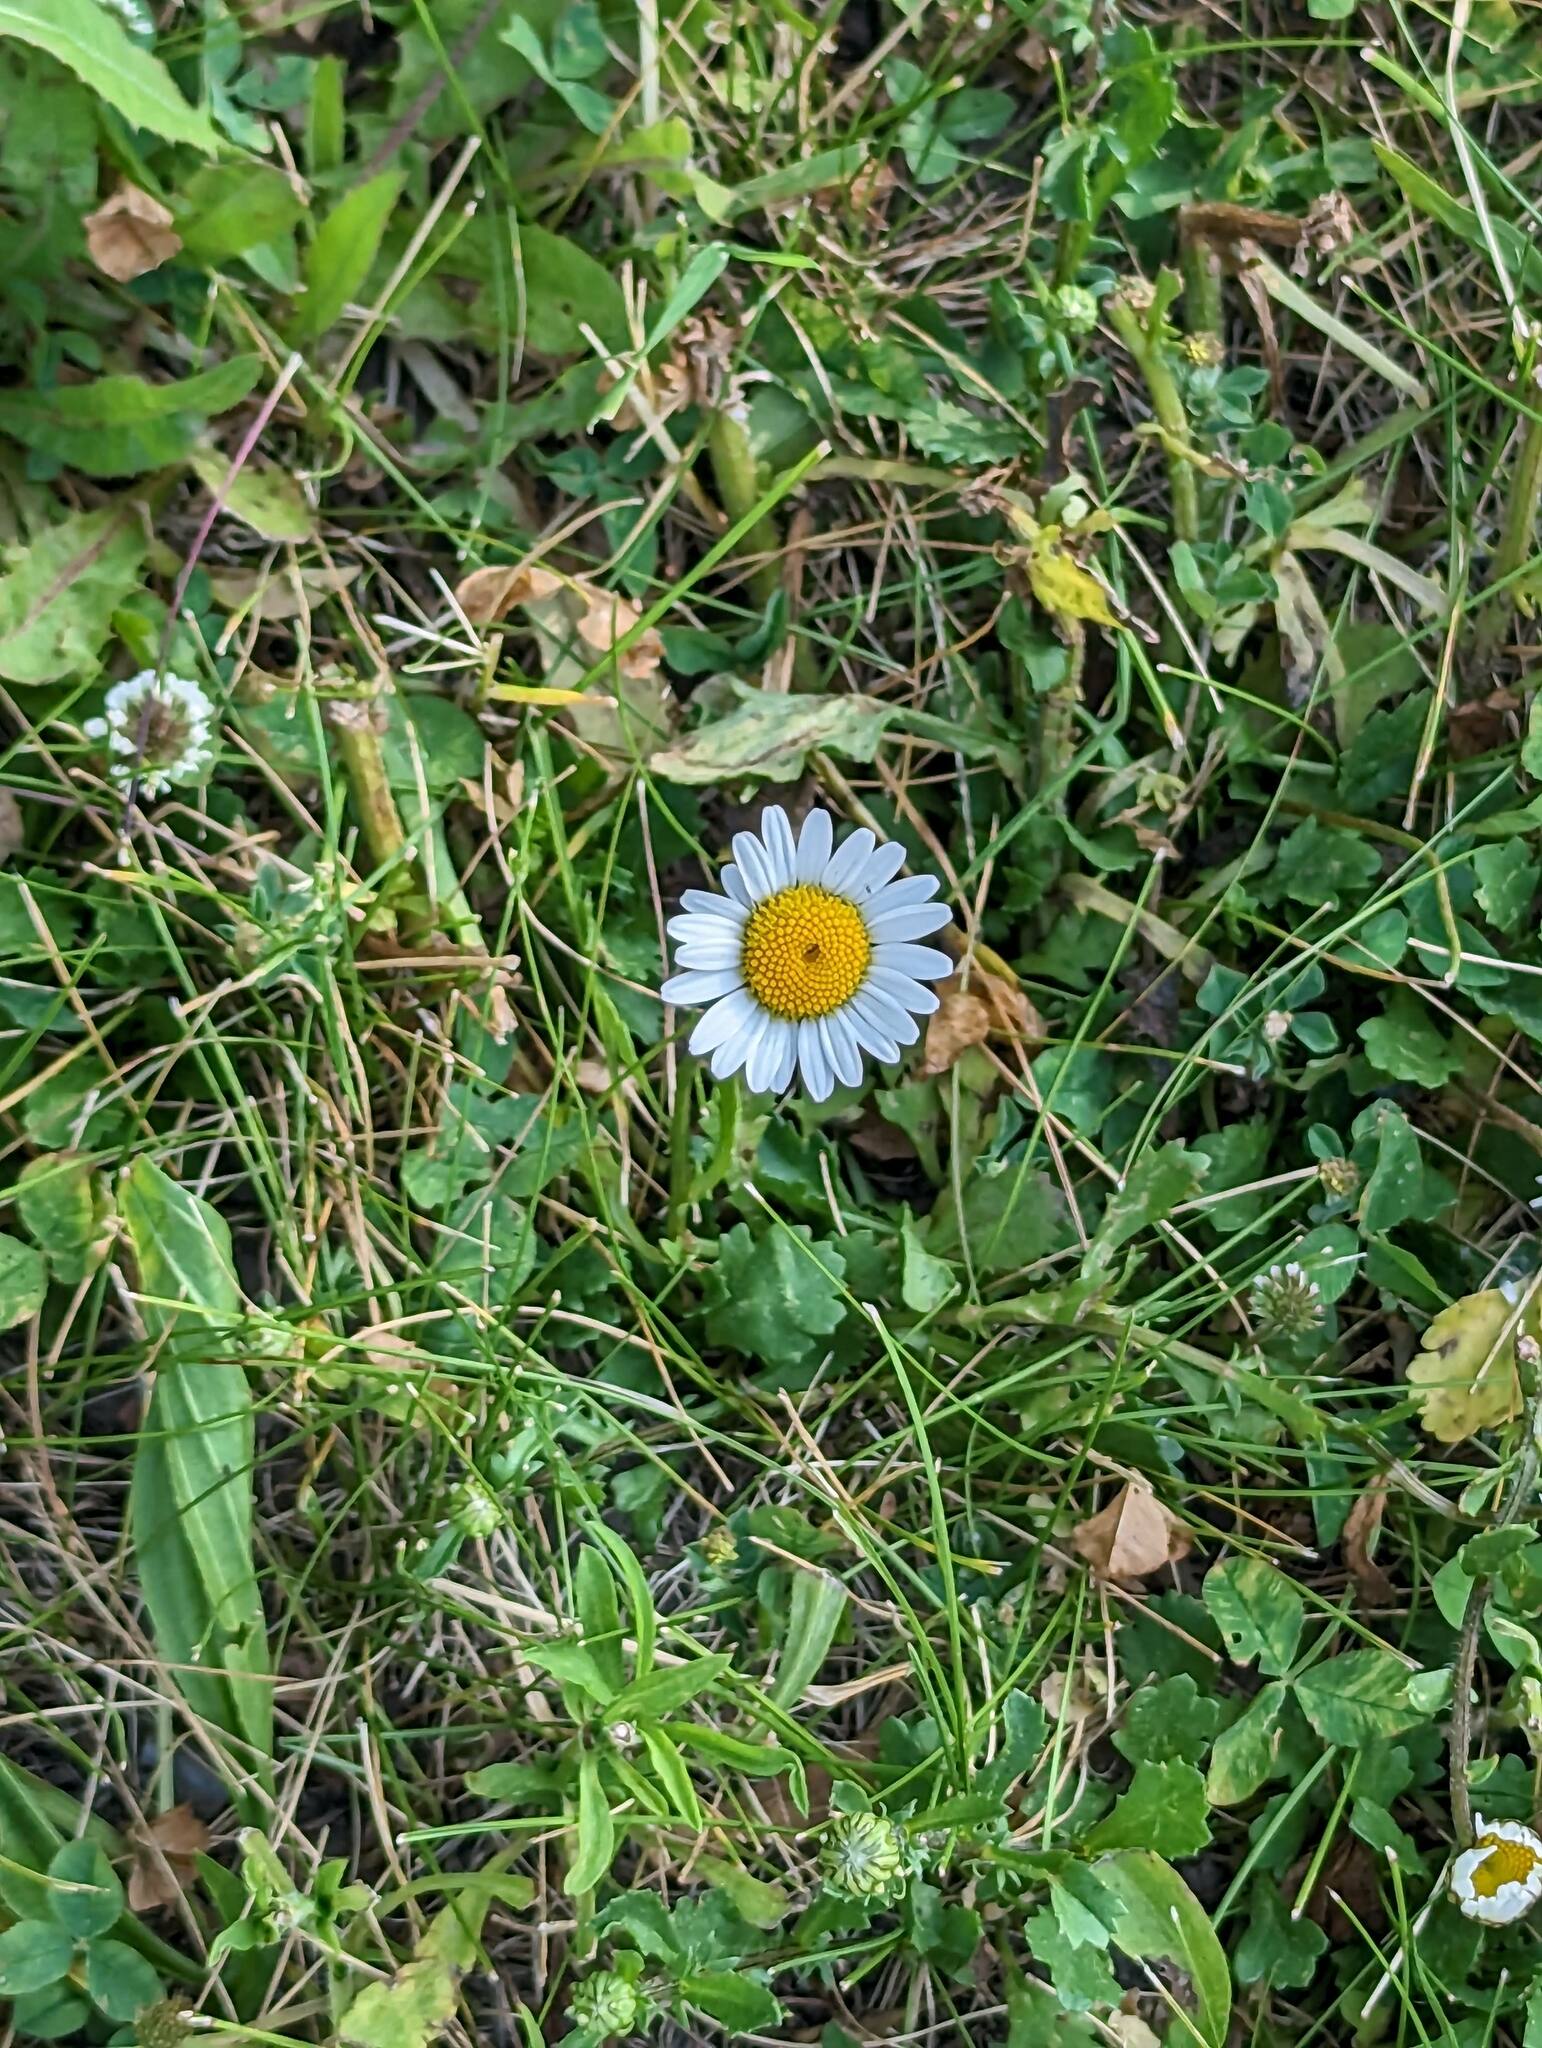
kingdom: Plantae
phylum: Tracheophyta
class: Magnoliopsida
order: Asterales
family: Asteraceae
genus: Leucanthemum
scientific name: Leucanthemum vulgare
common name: Oxeye daisy
